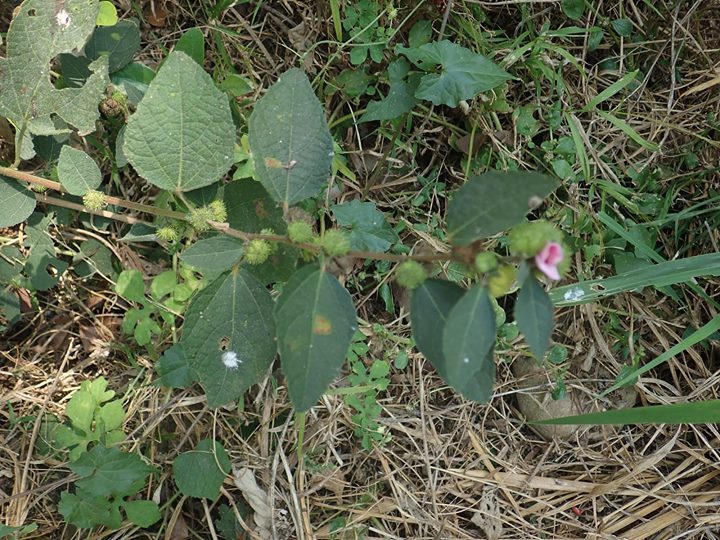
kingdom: Plantae
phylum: Tracheophyta
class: Magnoliopsida
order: Malvales
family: Malvaceae
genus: Urena
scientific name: Urena lobata
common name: Caesarweed
